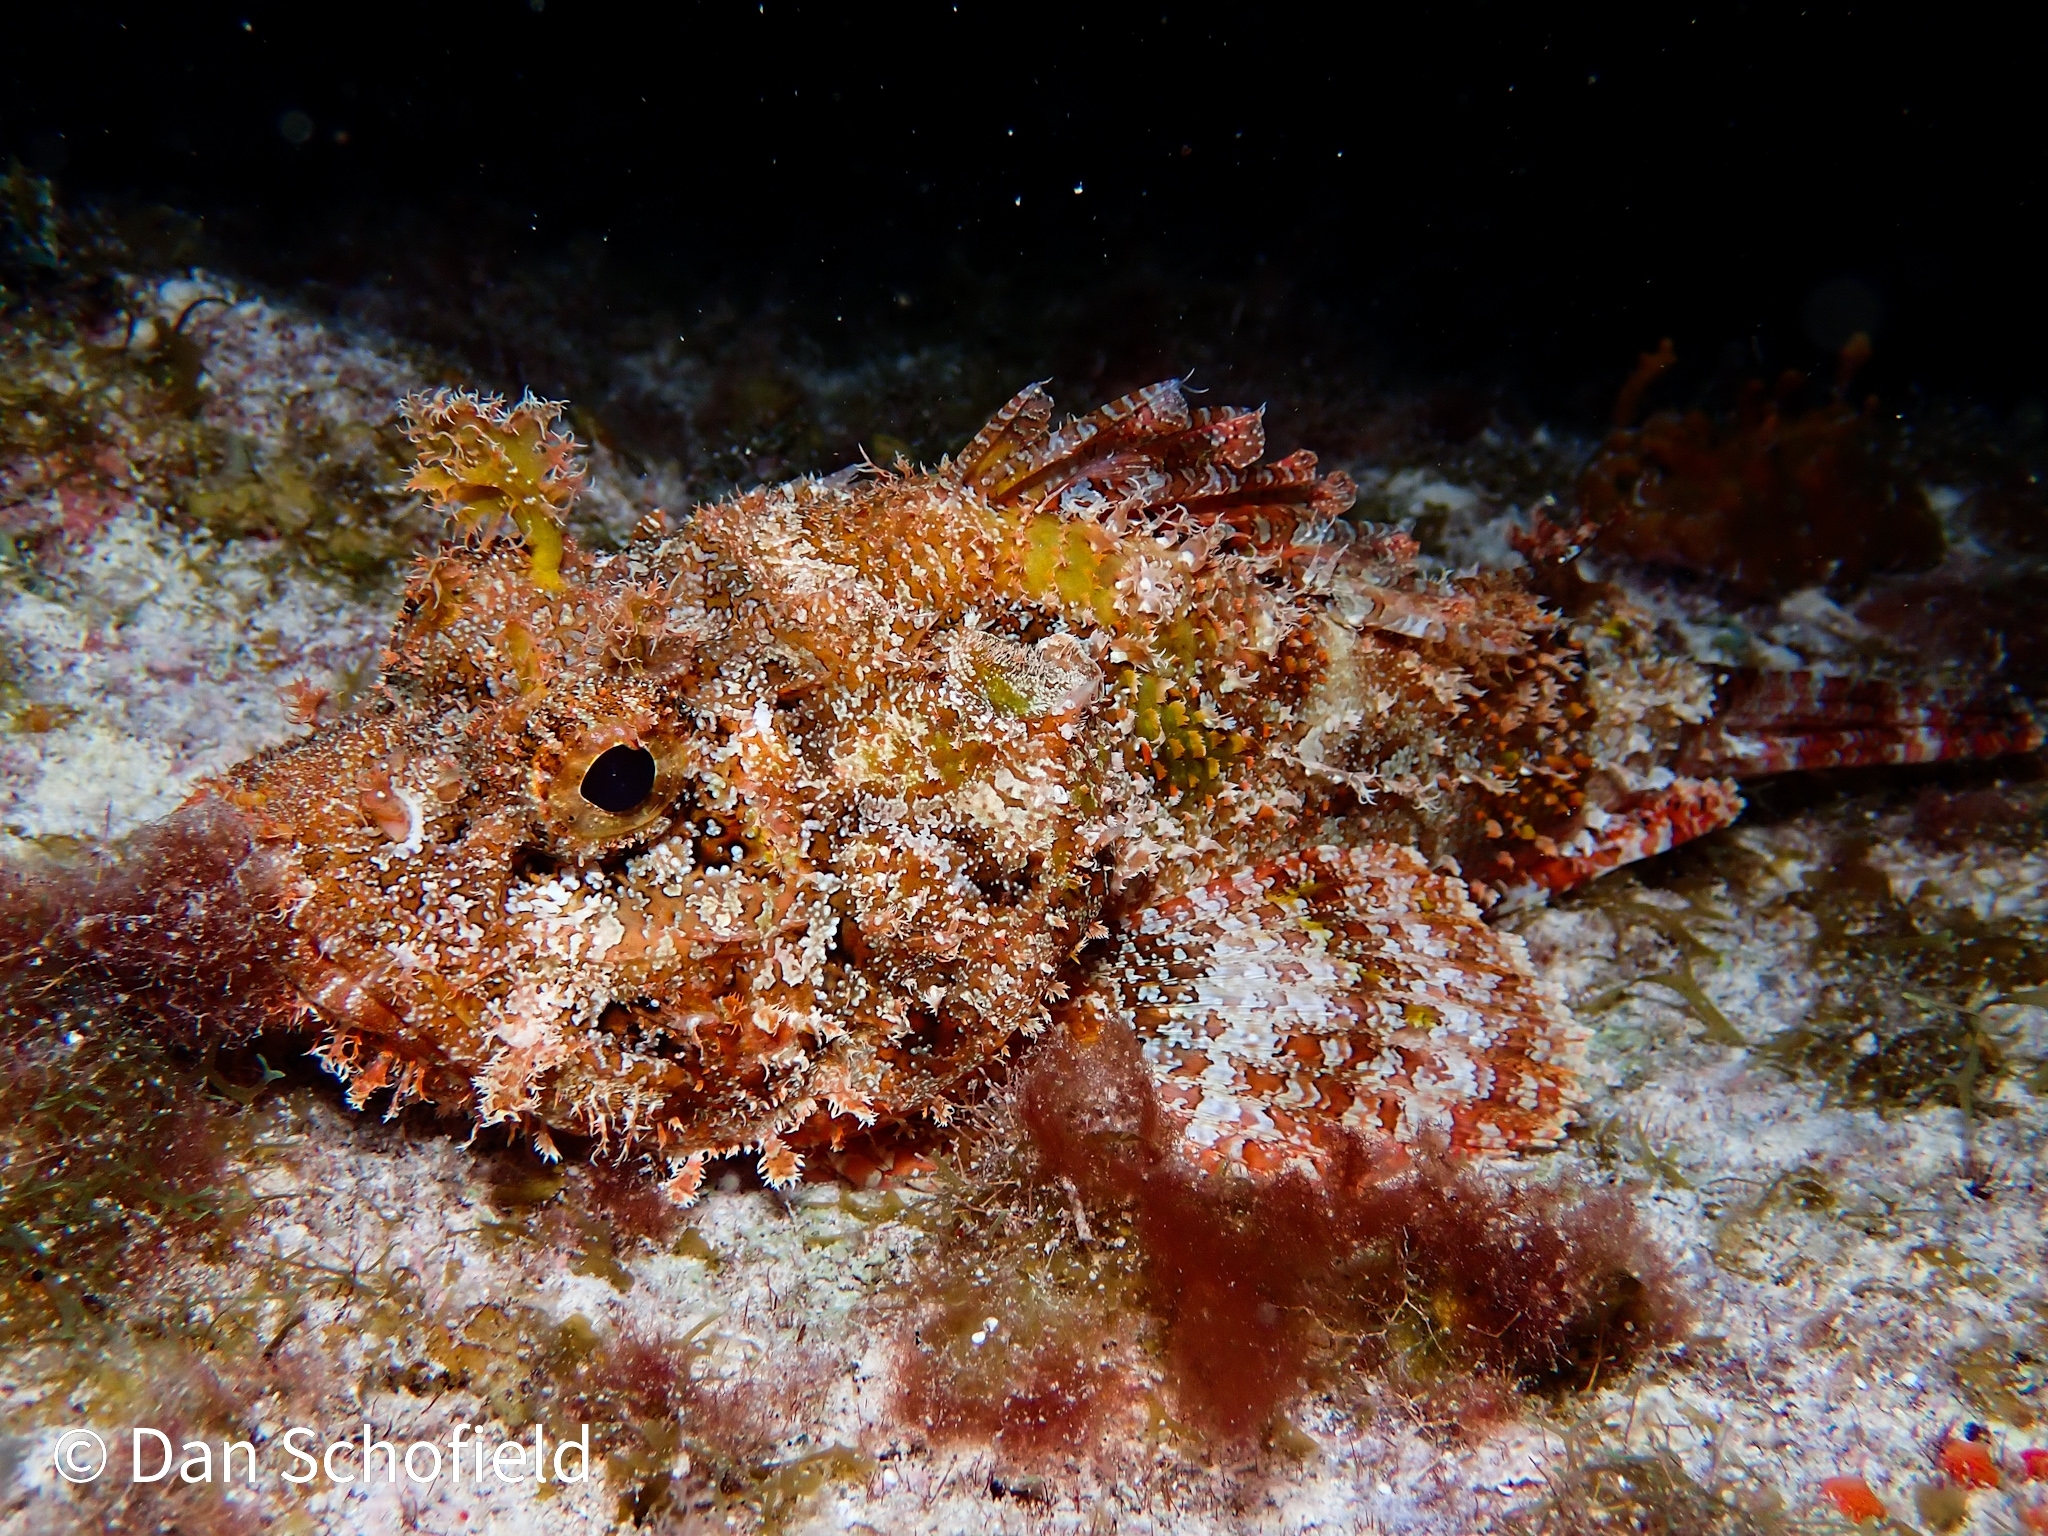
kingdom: Animalia
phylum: Chordata
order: Scorpaeniformes
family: Scorpaenidae
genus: Scorpaena
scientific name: Scorpaena plumieri
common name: Spotted scorpionfish
